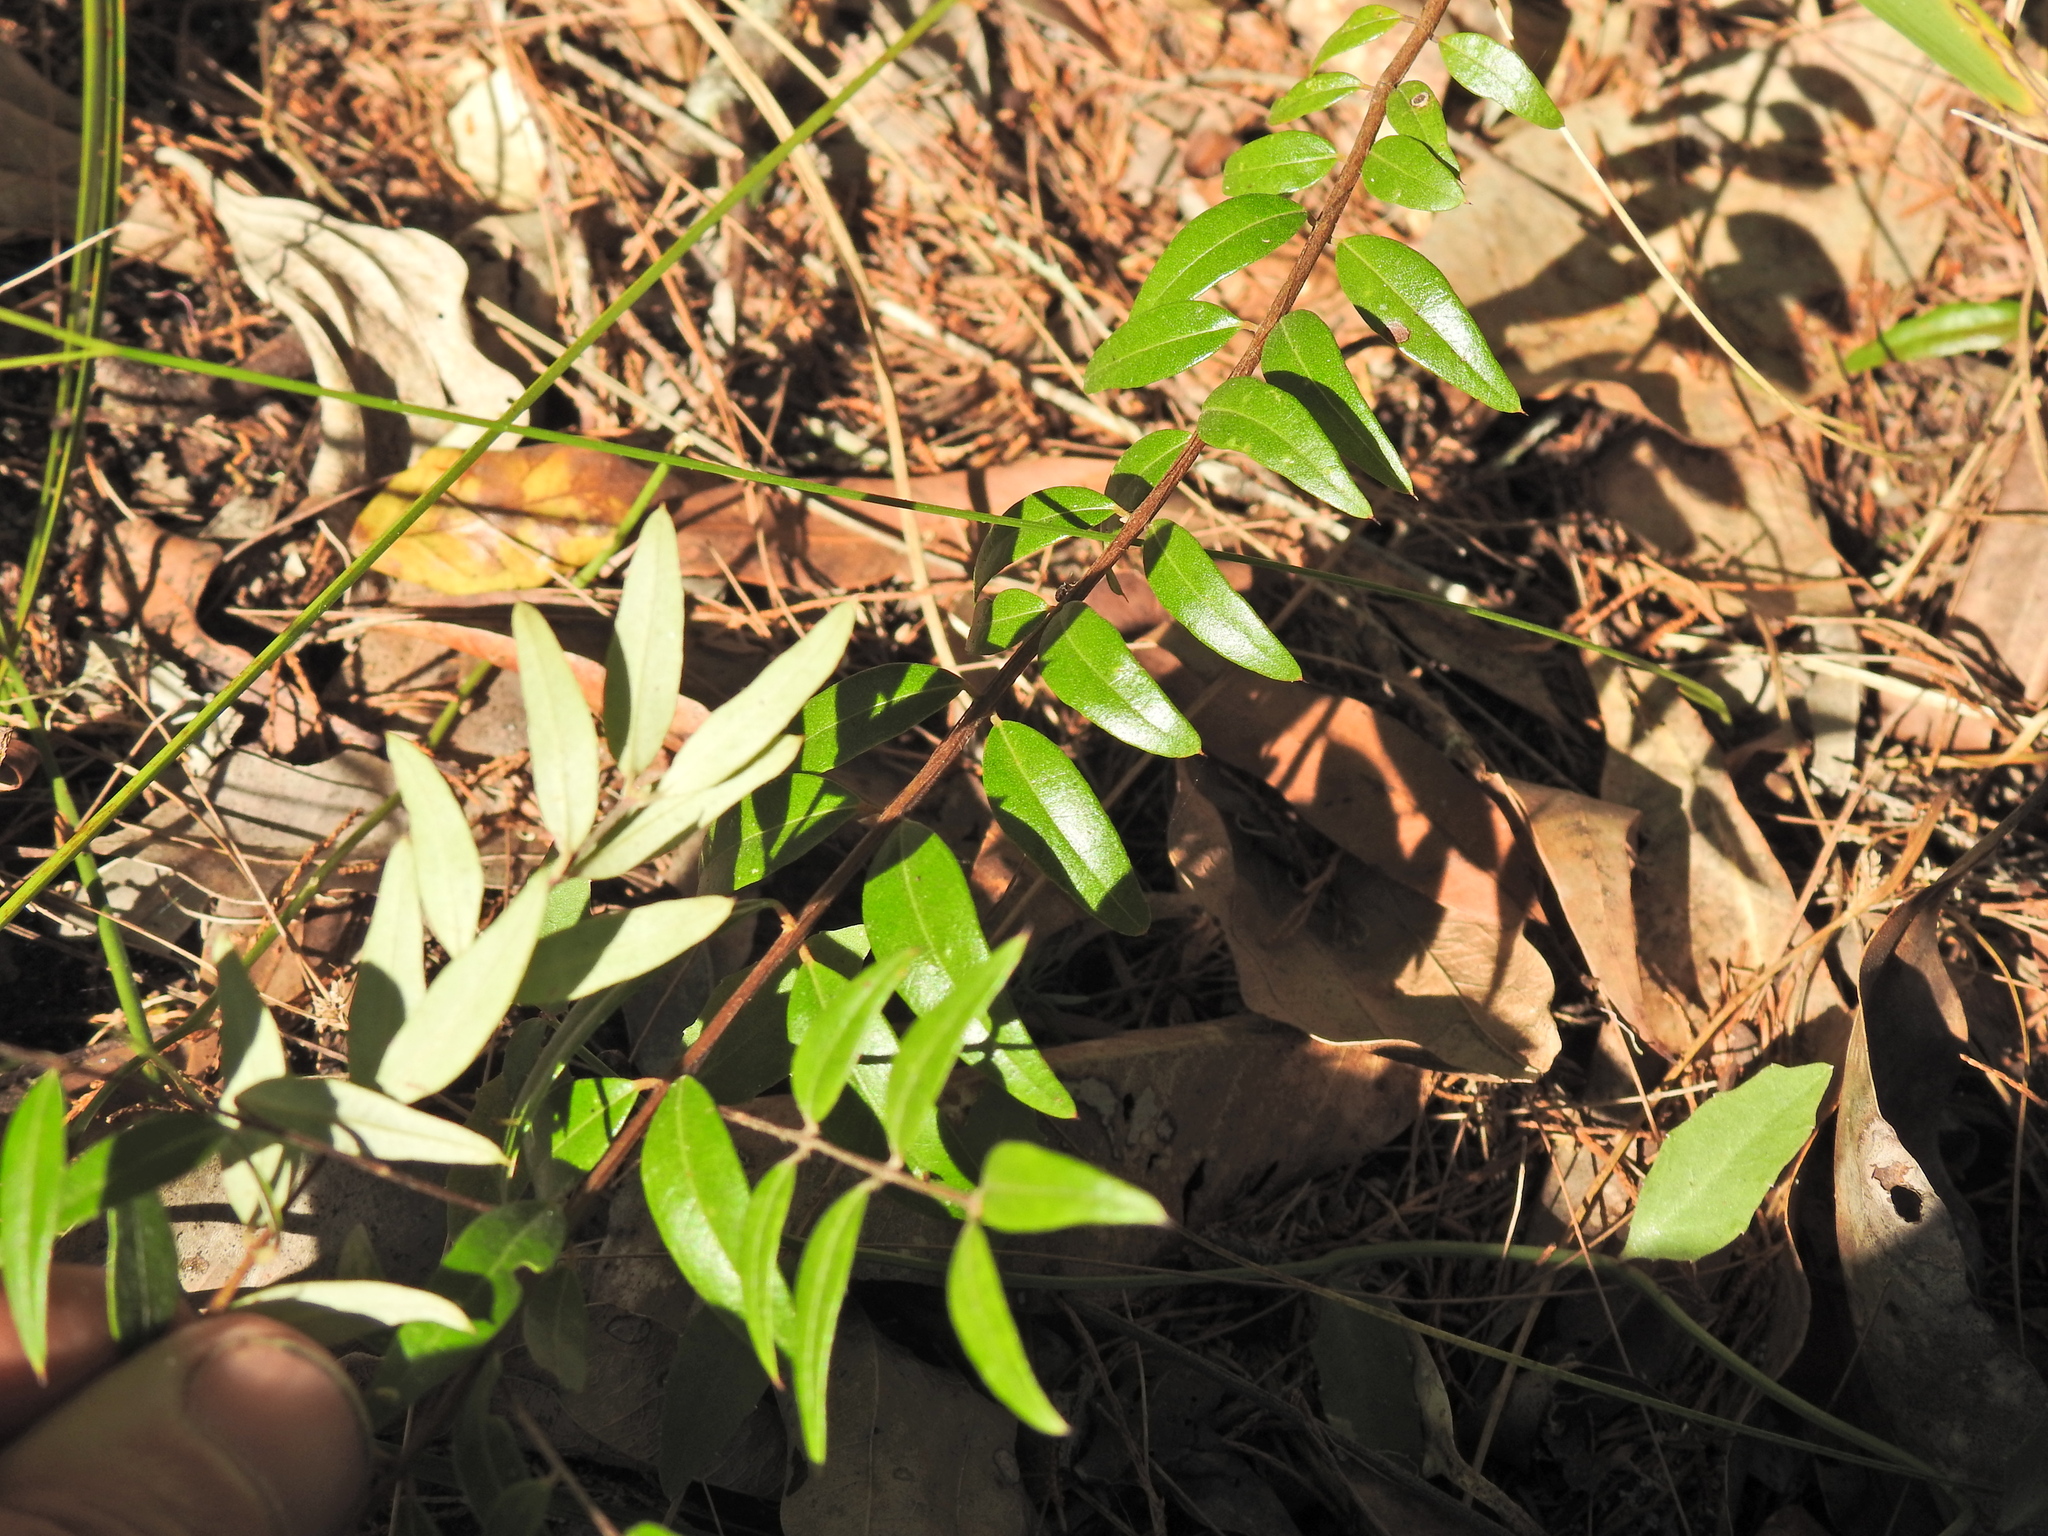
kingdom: Plantae
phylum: Tracheophyta
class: Magnoliopsida
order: Myrtales
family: Myrtaceae
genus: Austromyrtus
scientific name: Austromyrtus dulcis
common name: Migden-berry
